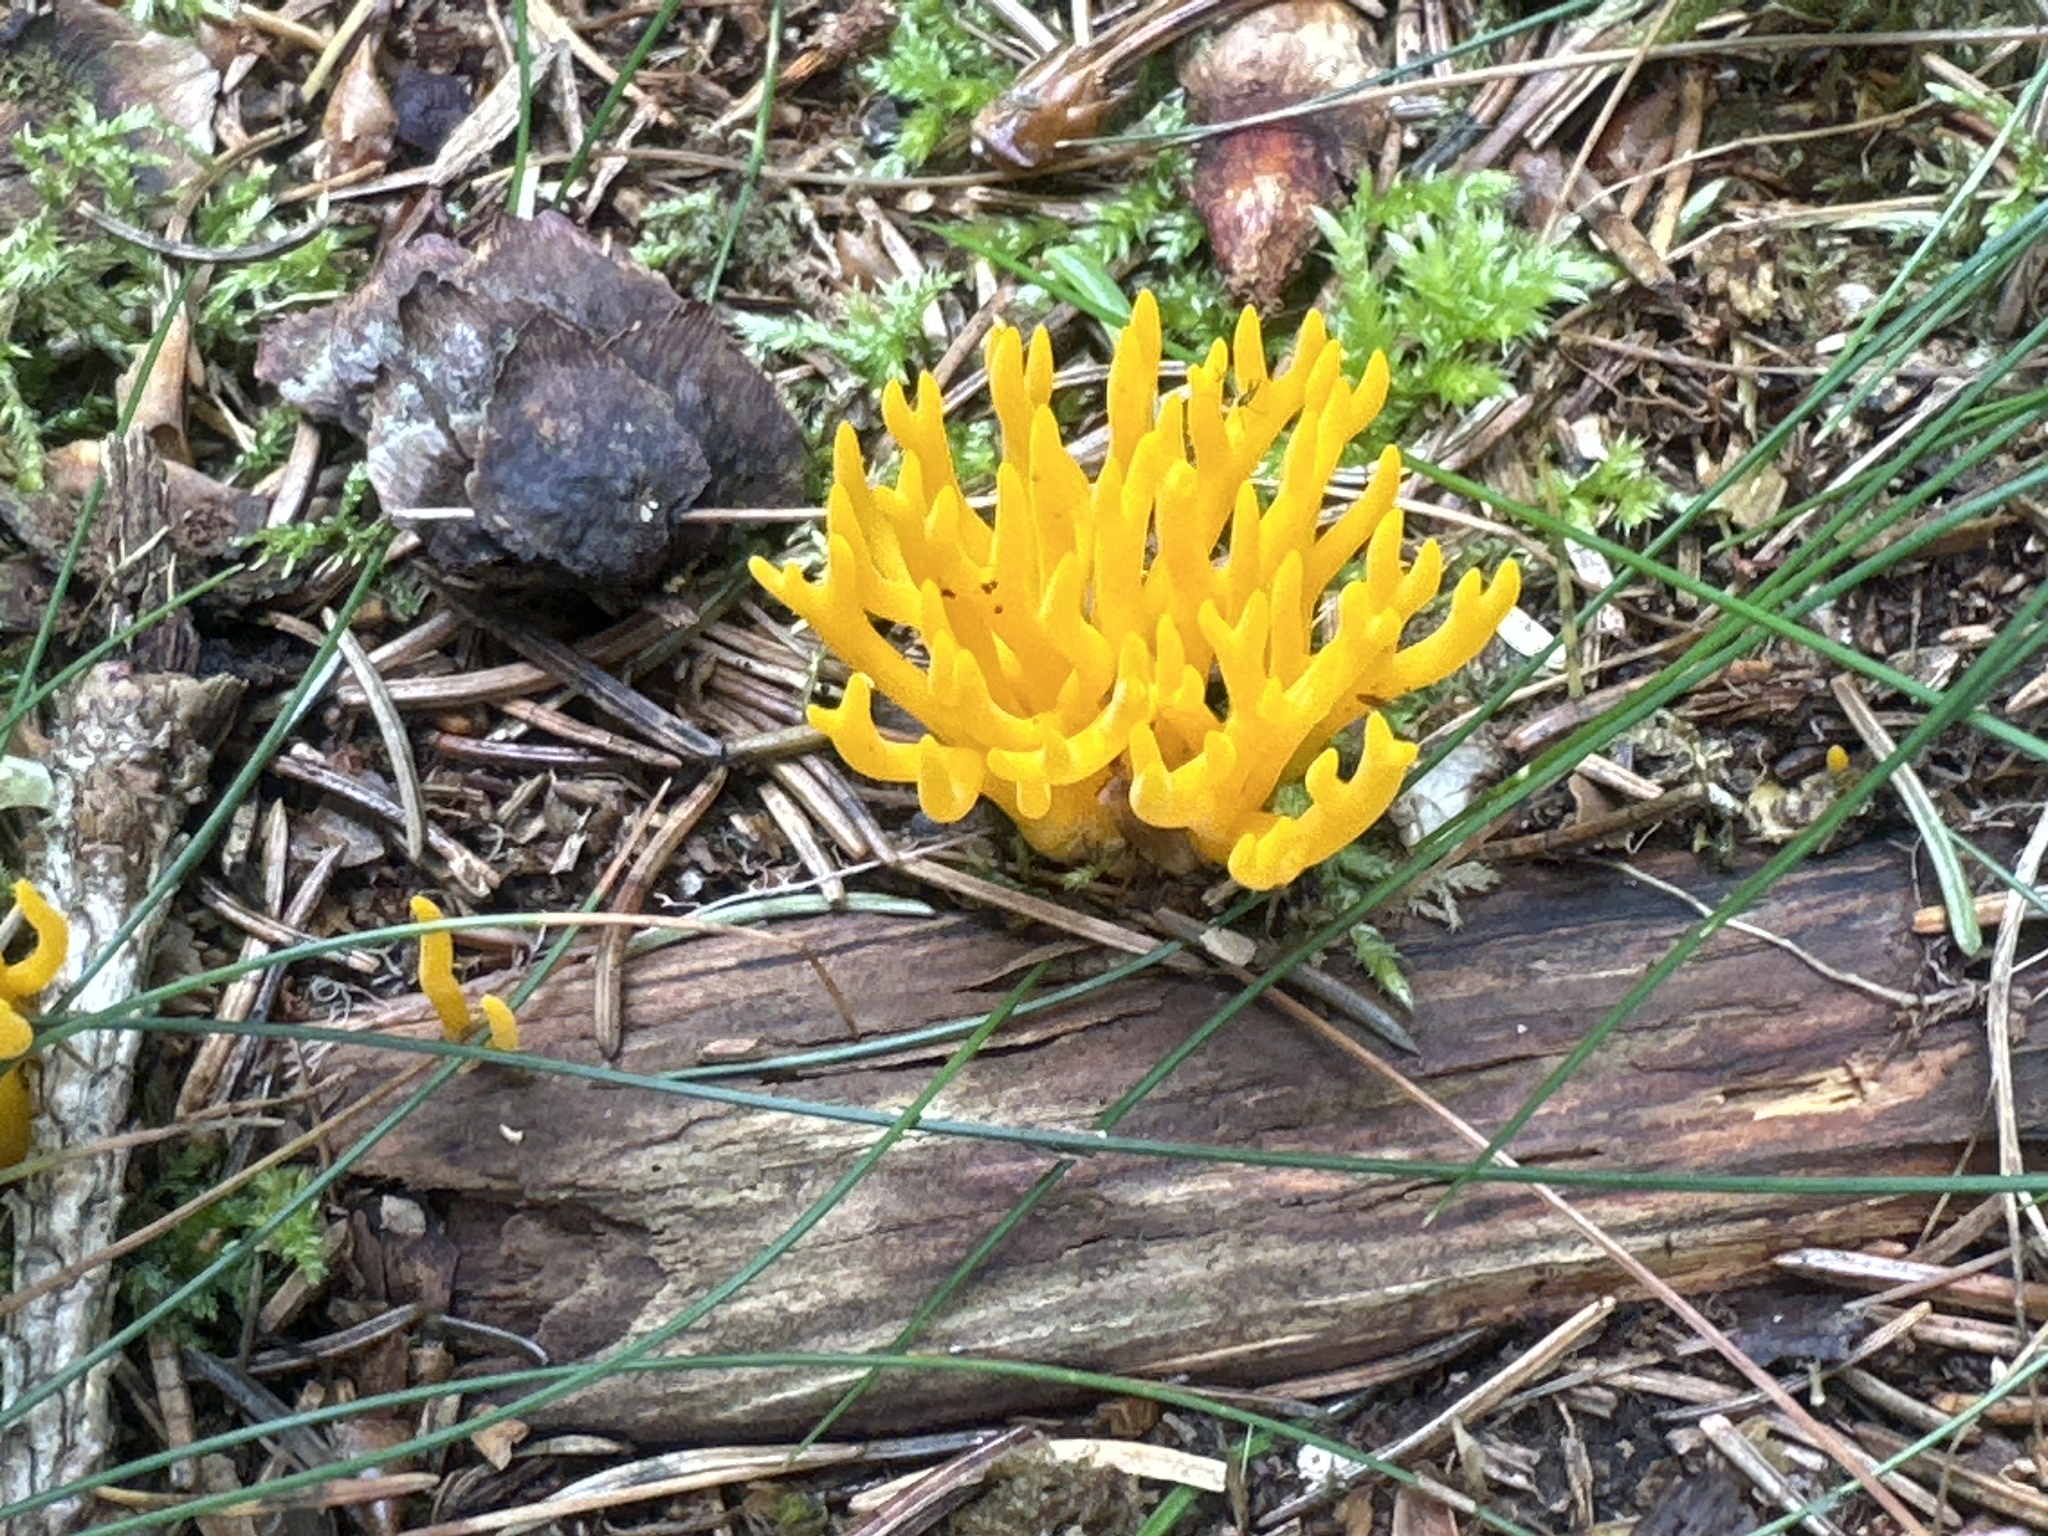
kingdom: Fungi
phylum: Basidiomycota
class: Dacrymycetes
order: Dacrymycetales
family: Dacrymycetaceae
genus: Calocera
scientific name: Calocera viscosa
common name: Yellow stagshorn
